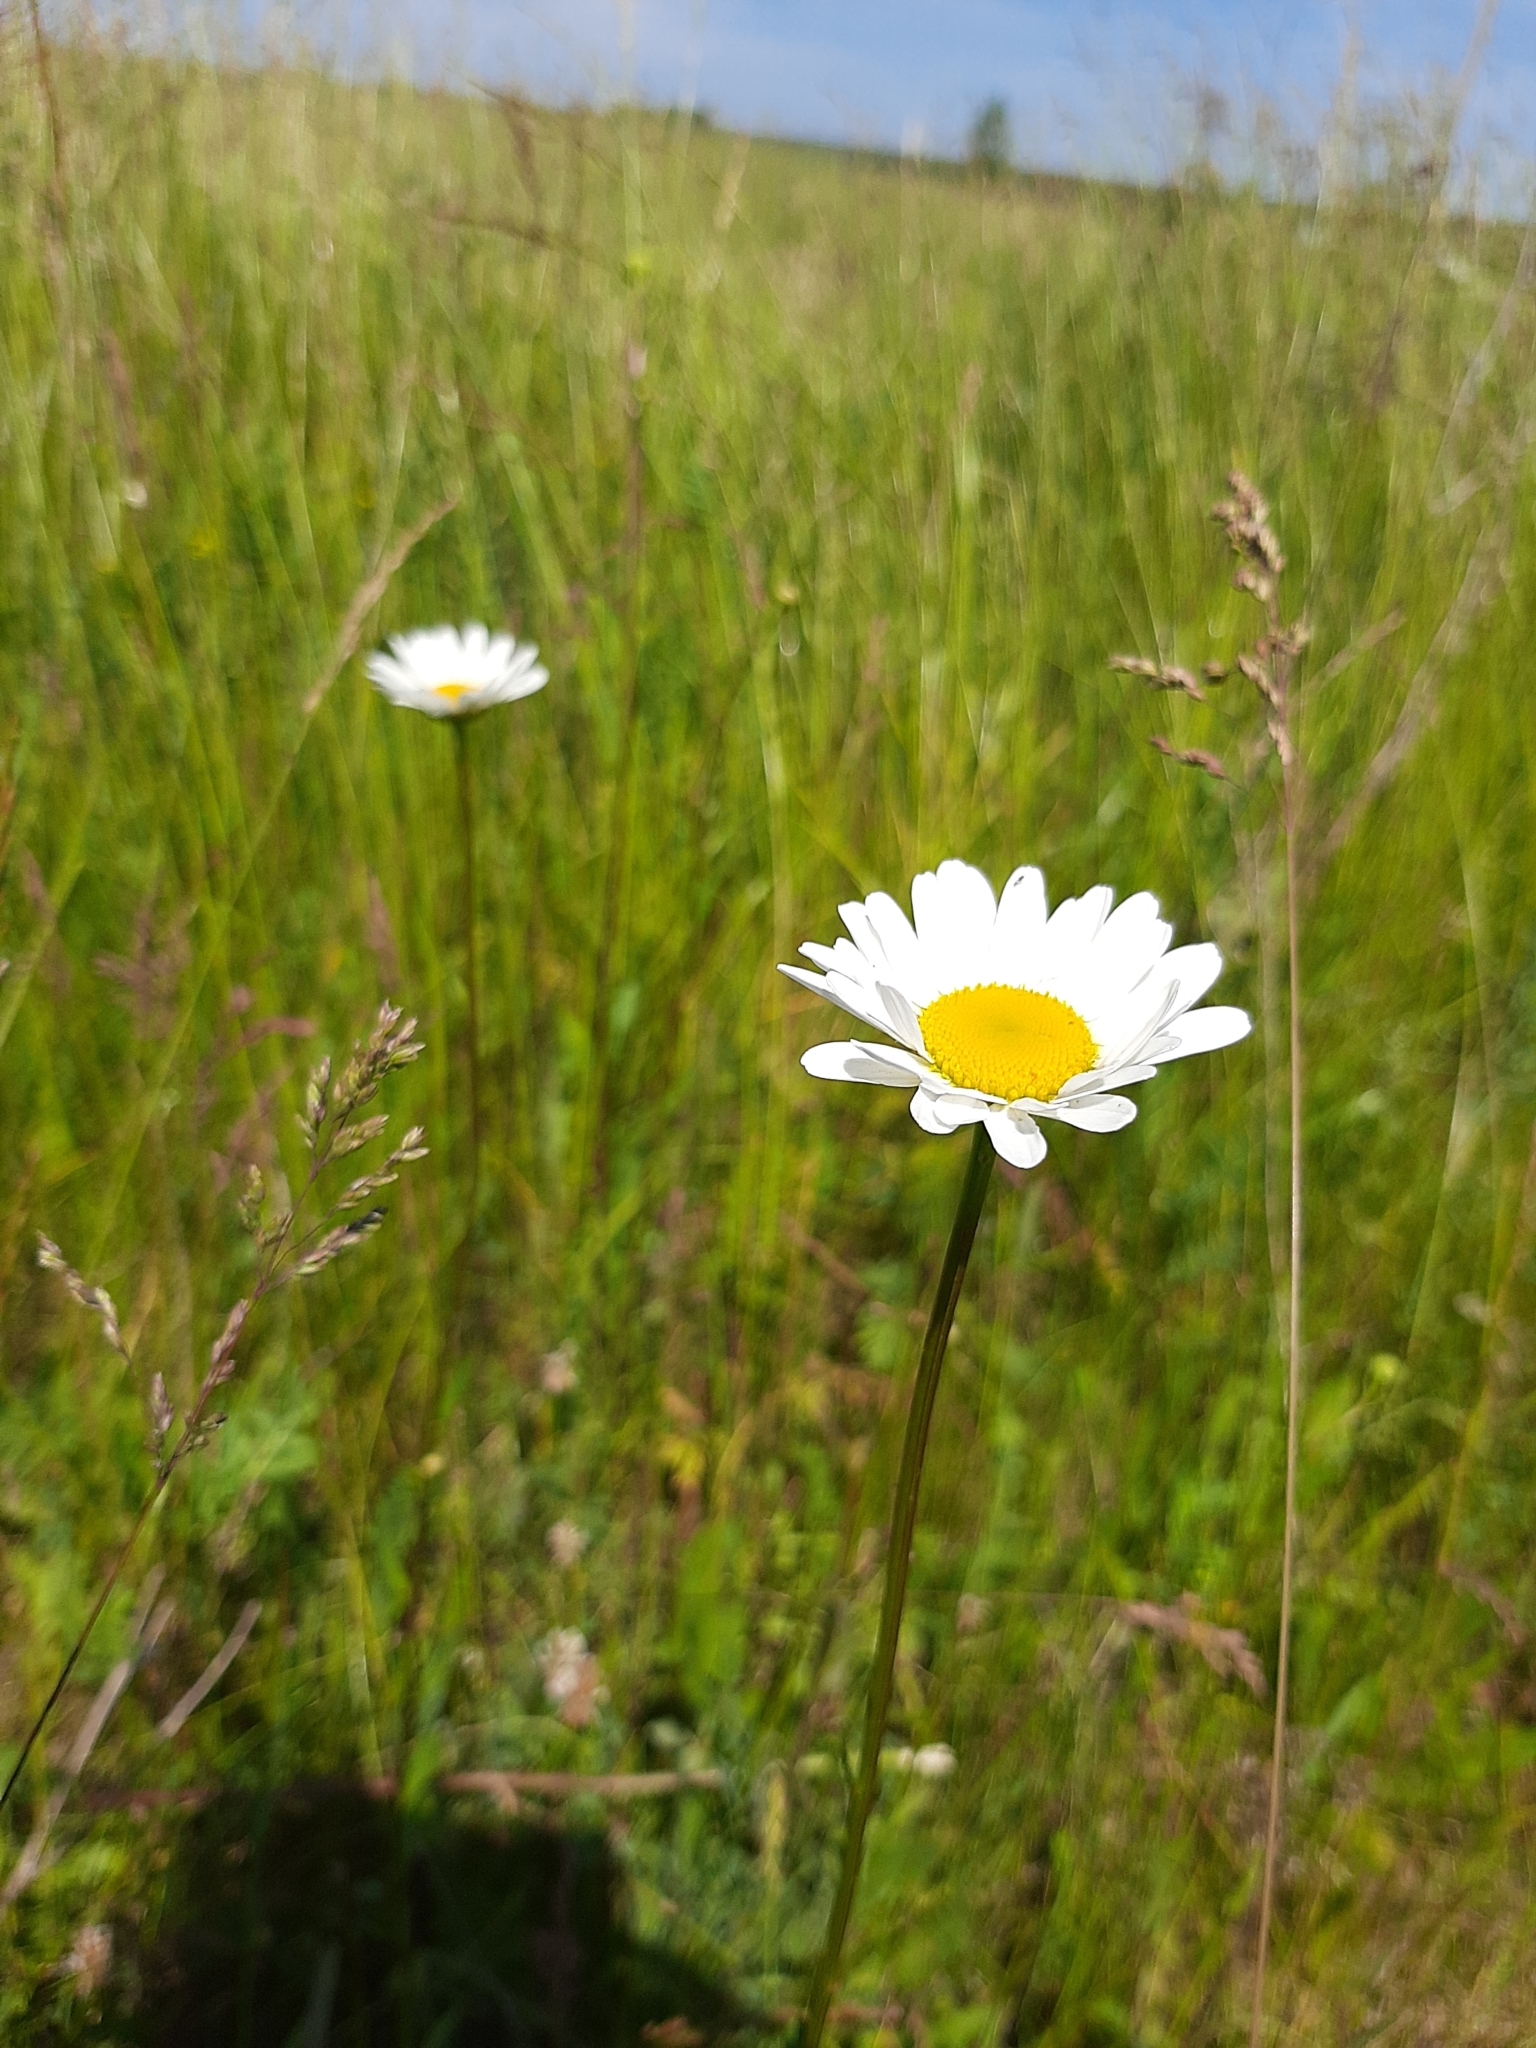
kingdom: Plantae
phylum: Tracheophyta
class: Magnoliopsida
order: Asterales
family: Asteraceae
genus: Leucanthemum
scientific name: Leucanthemum vulgare
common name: Oxeye daisy
